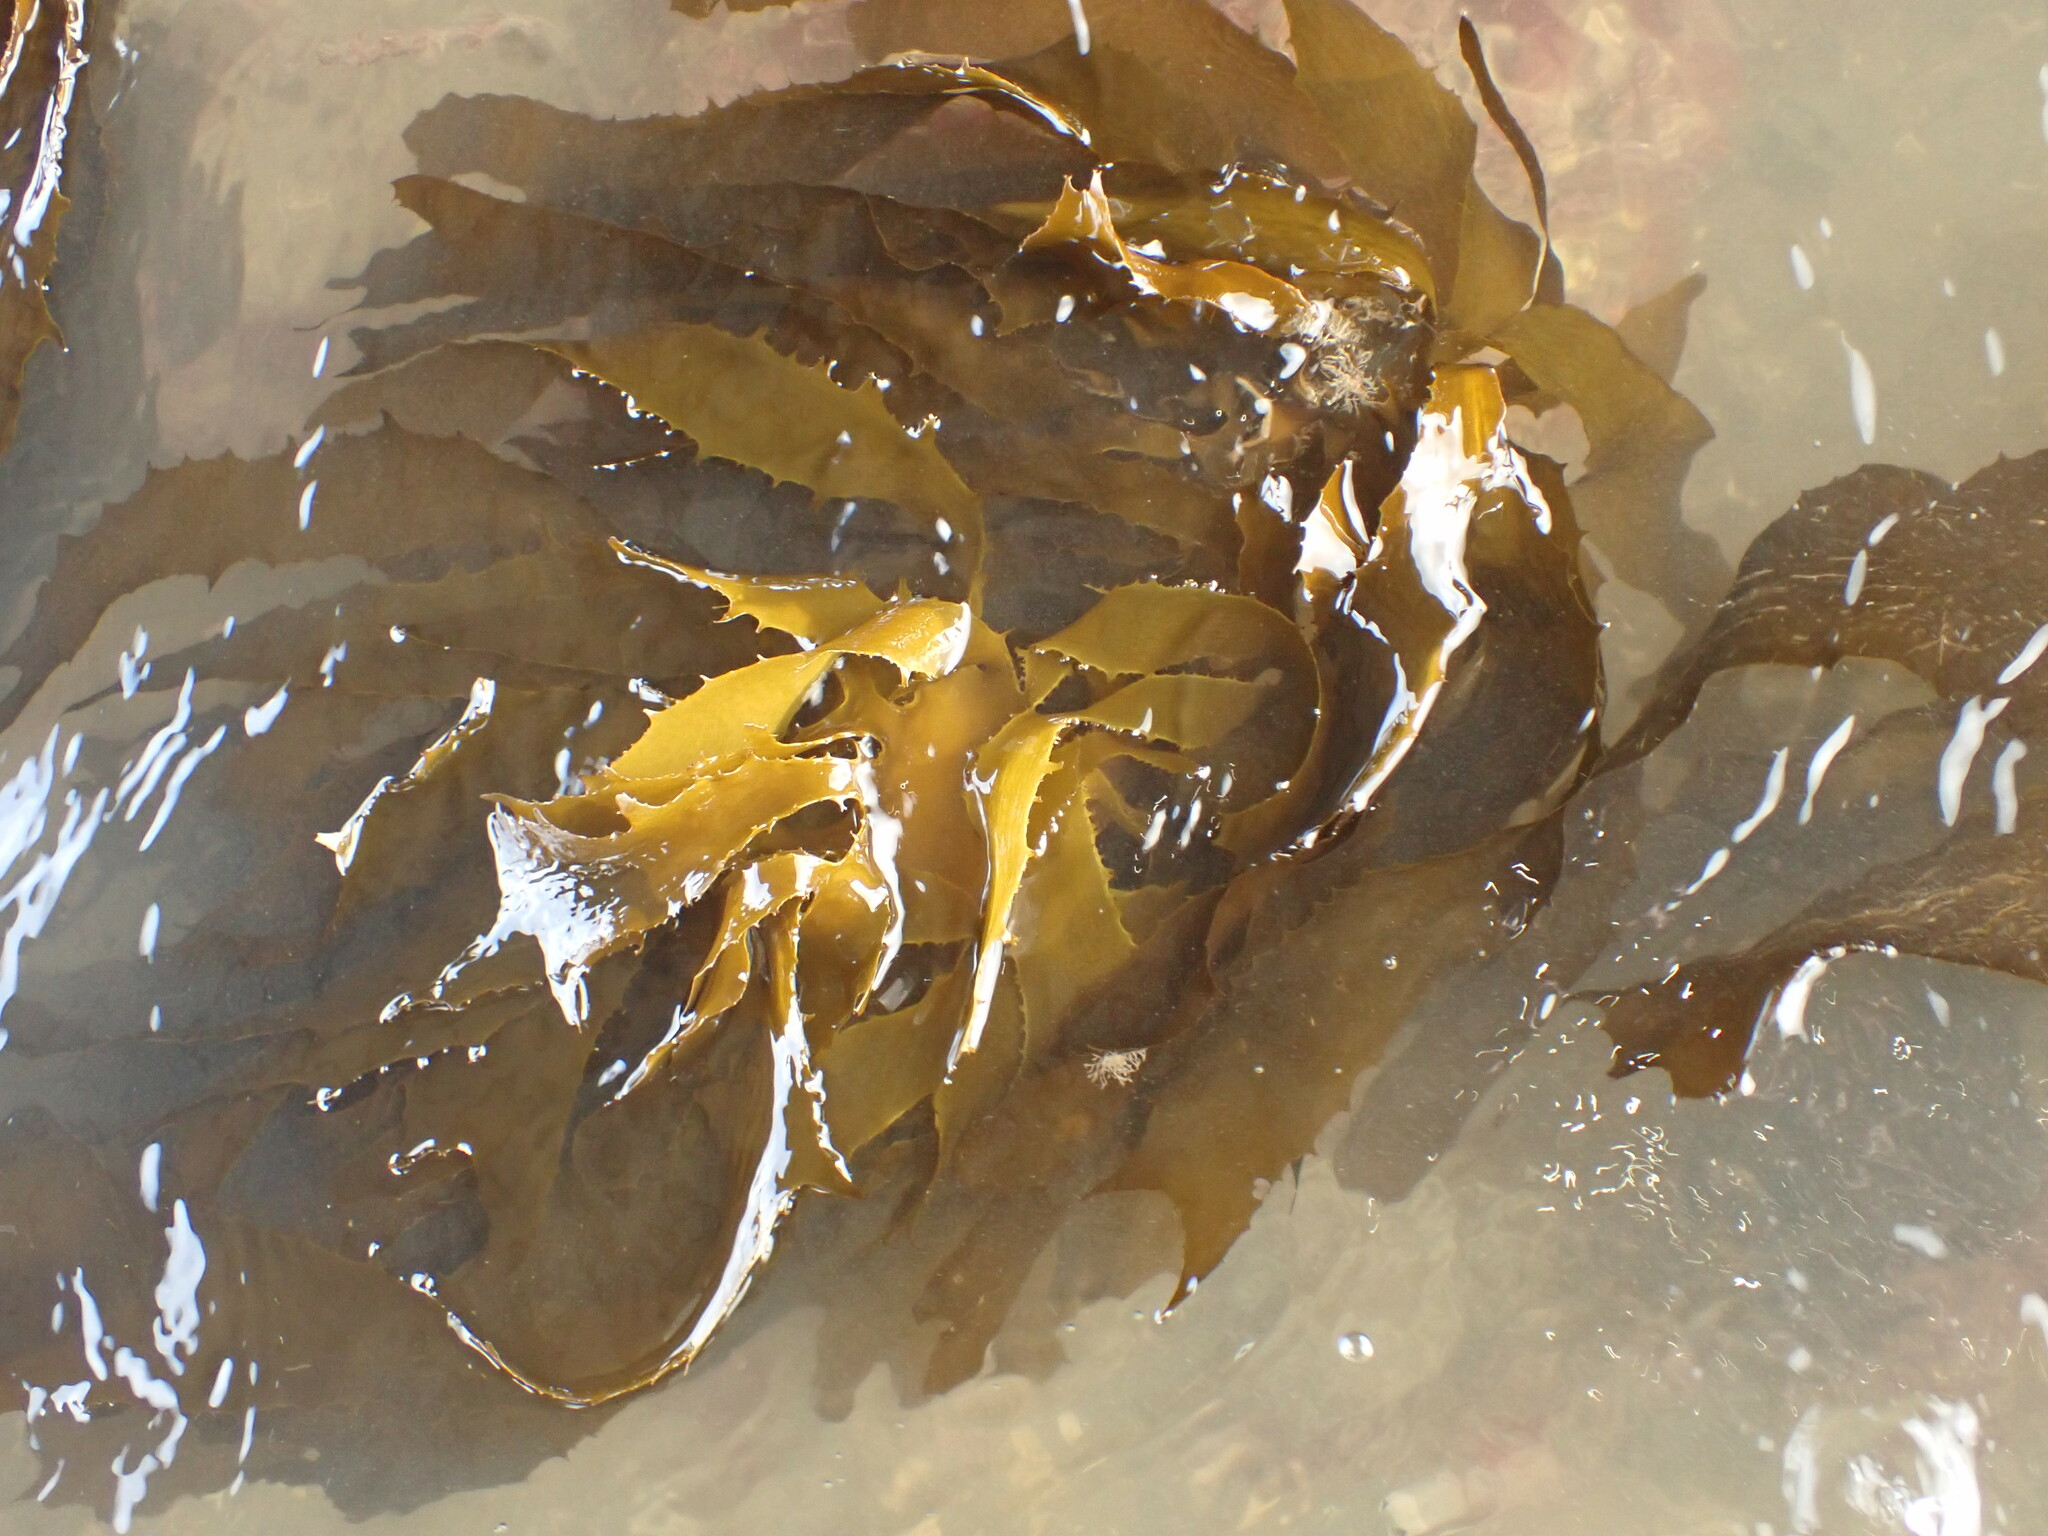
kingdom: Chromista
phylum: Ochrophyta
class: Phaeophyceae
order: Laminariales
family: Lessoniaceae
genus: Ecklonia
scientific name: Ecklonia radiata
